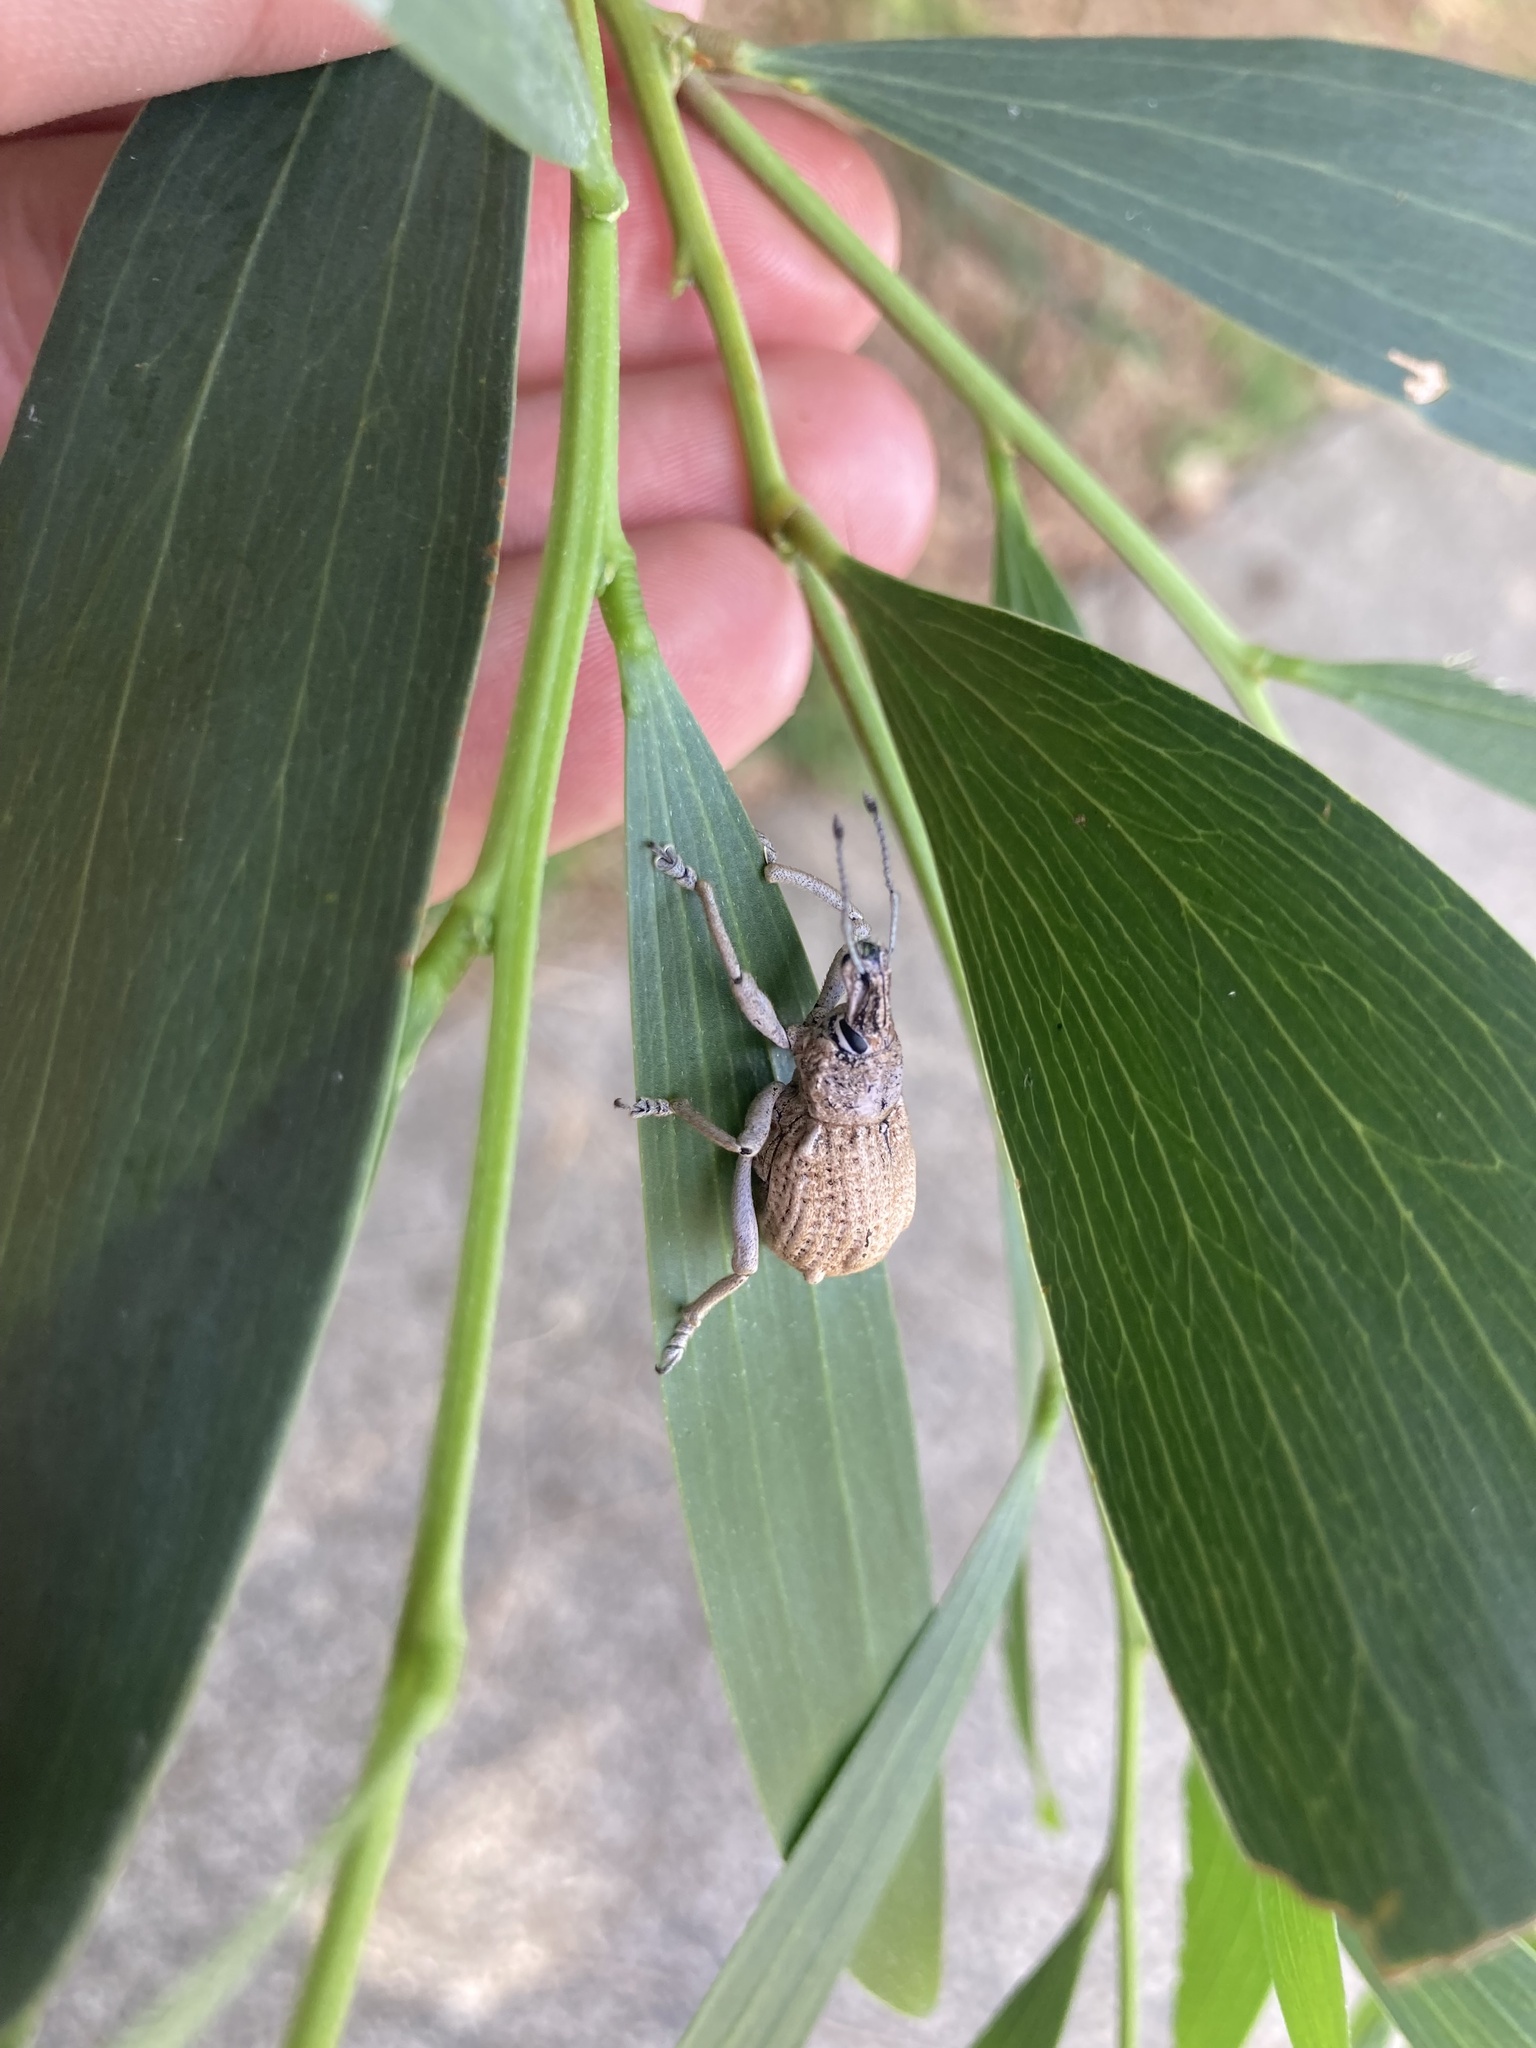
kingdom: Animalia
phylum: Arthropoda
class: Insecta
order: Coleoptera
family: Curculionidae
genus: Leptopius
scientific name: Leptopius robustus
